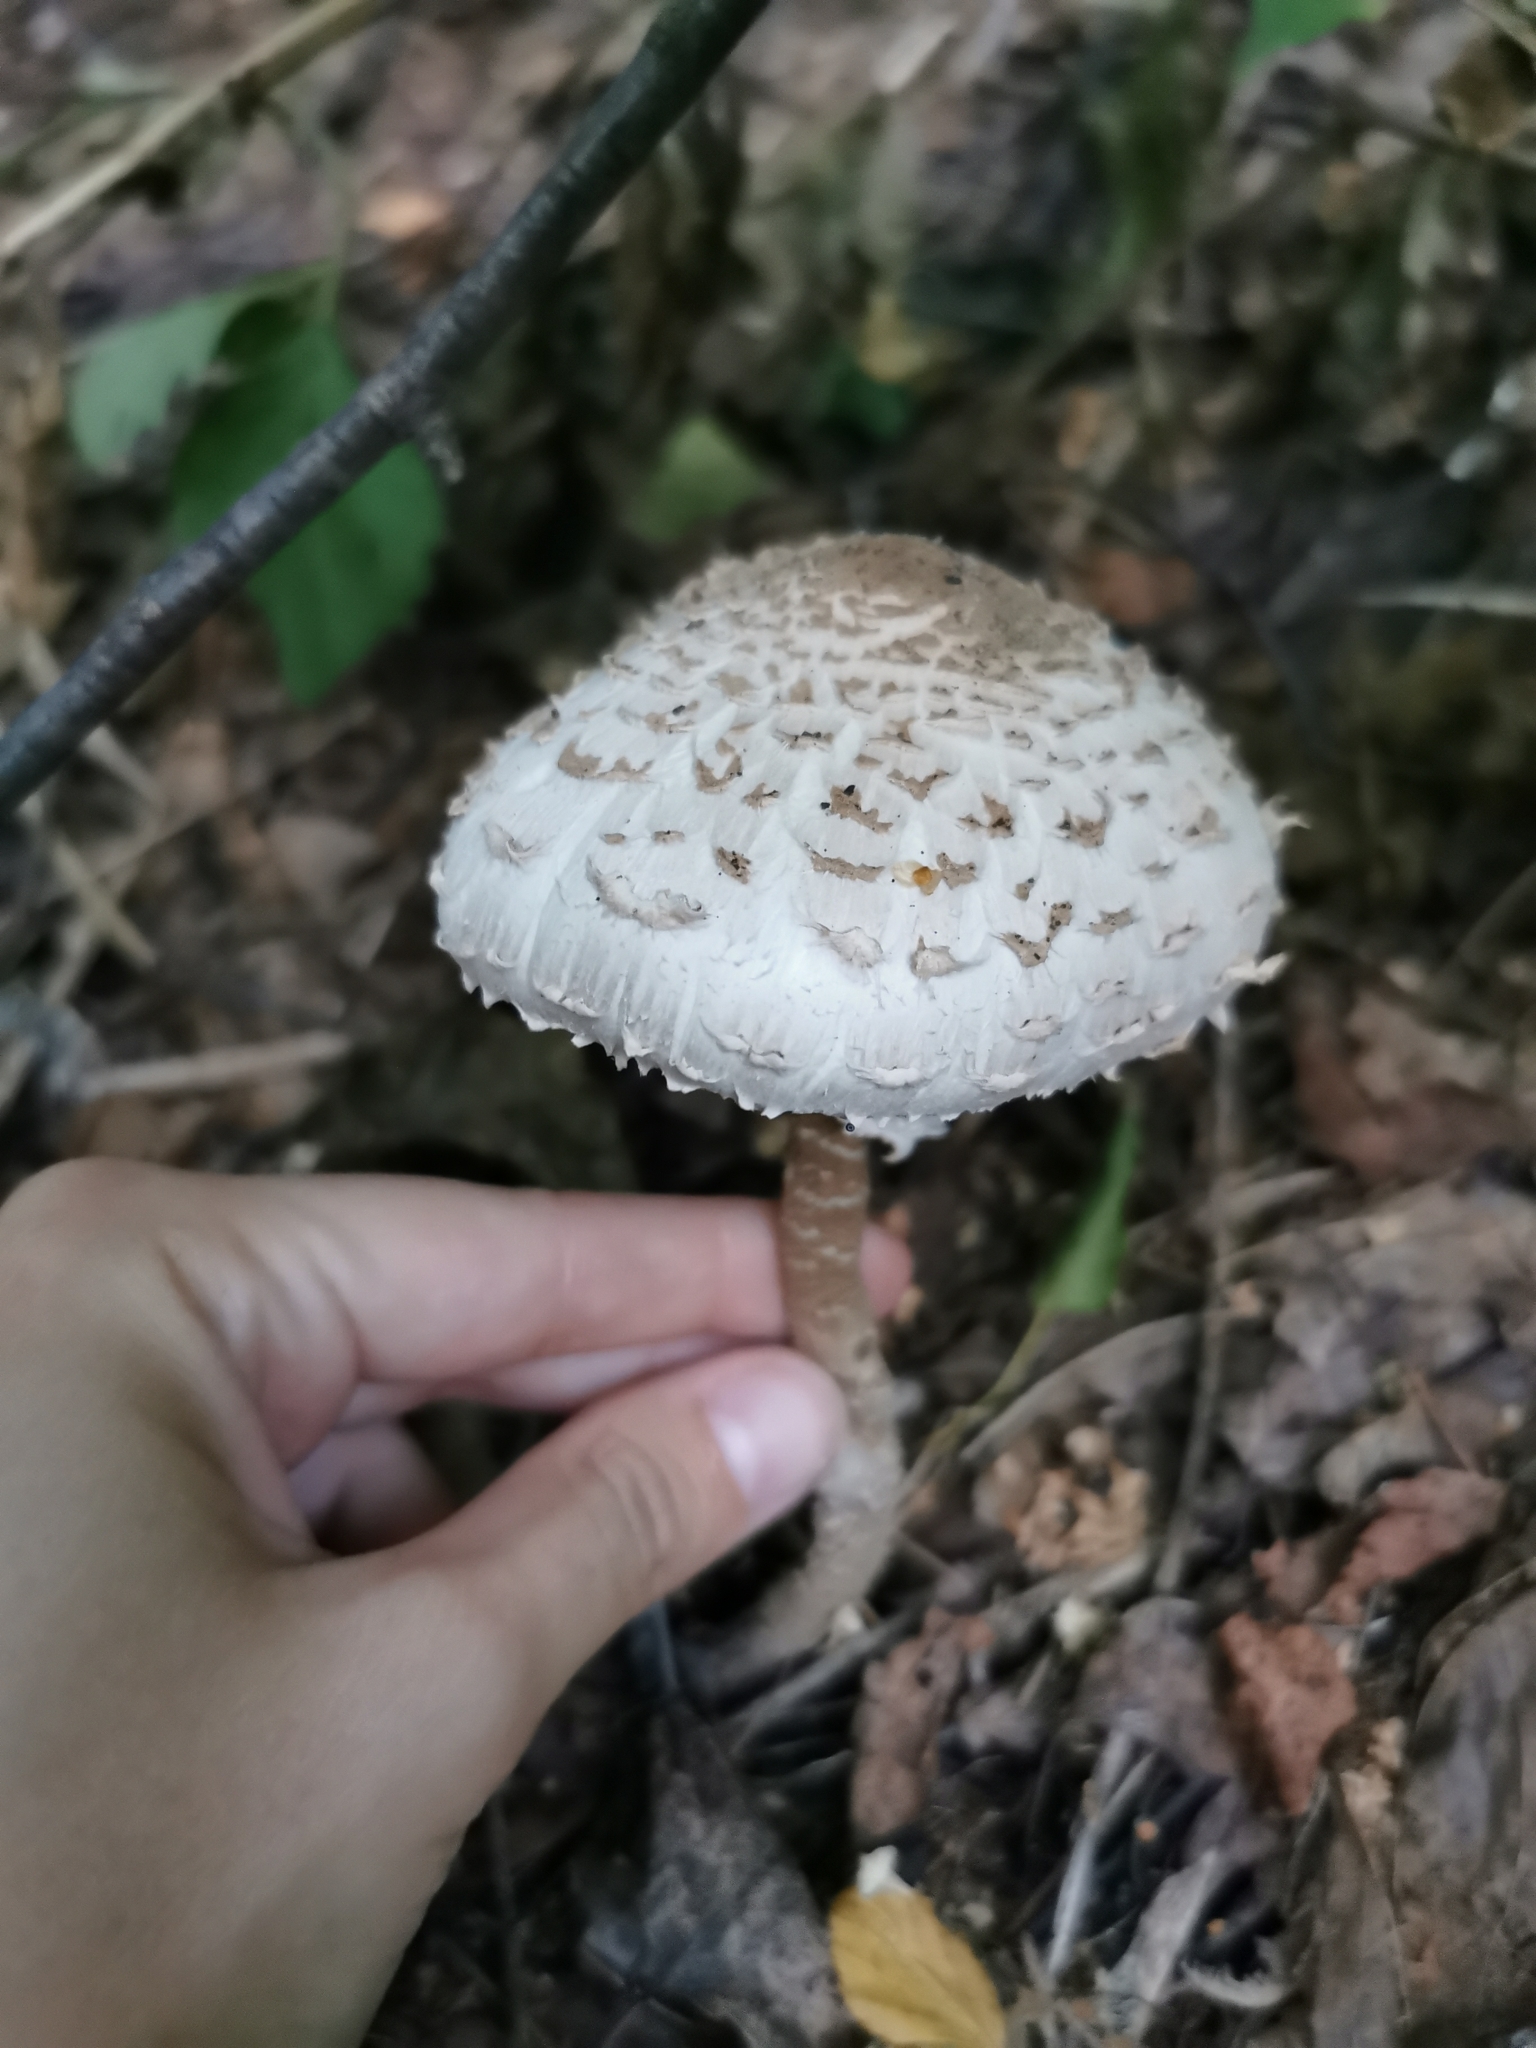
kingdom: Fungi
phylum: Basidiomycota
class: Agaricomycetes
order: Agaricales
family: Agaricaceae
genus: Macrolepiota
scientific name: Macrolepiota procera
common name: Parasol
